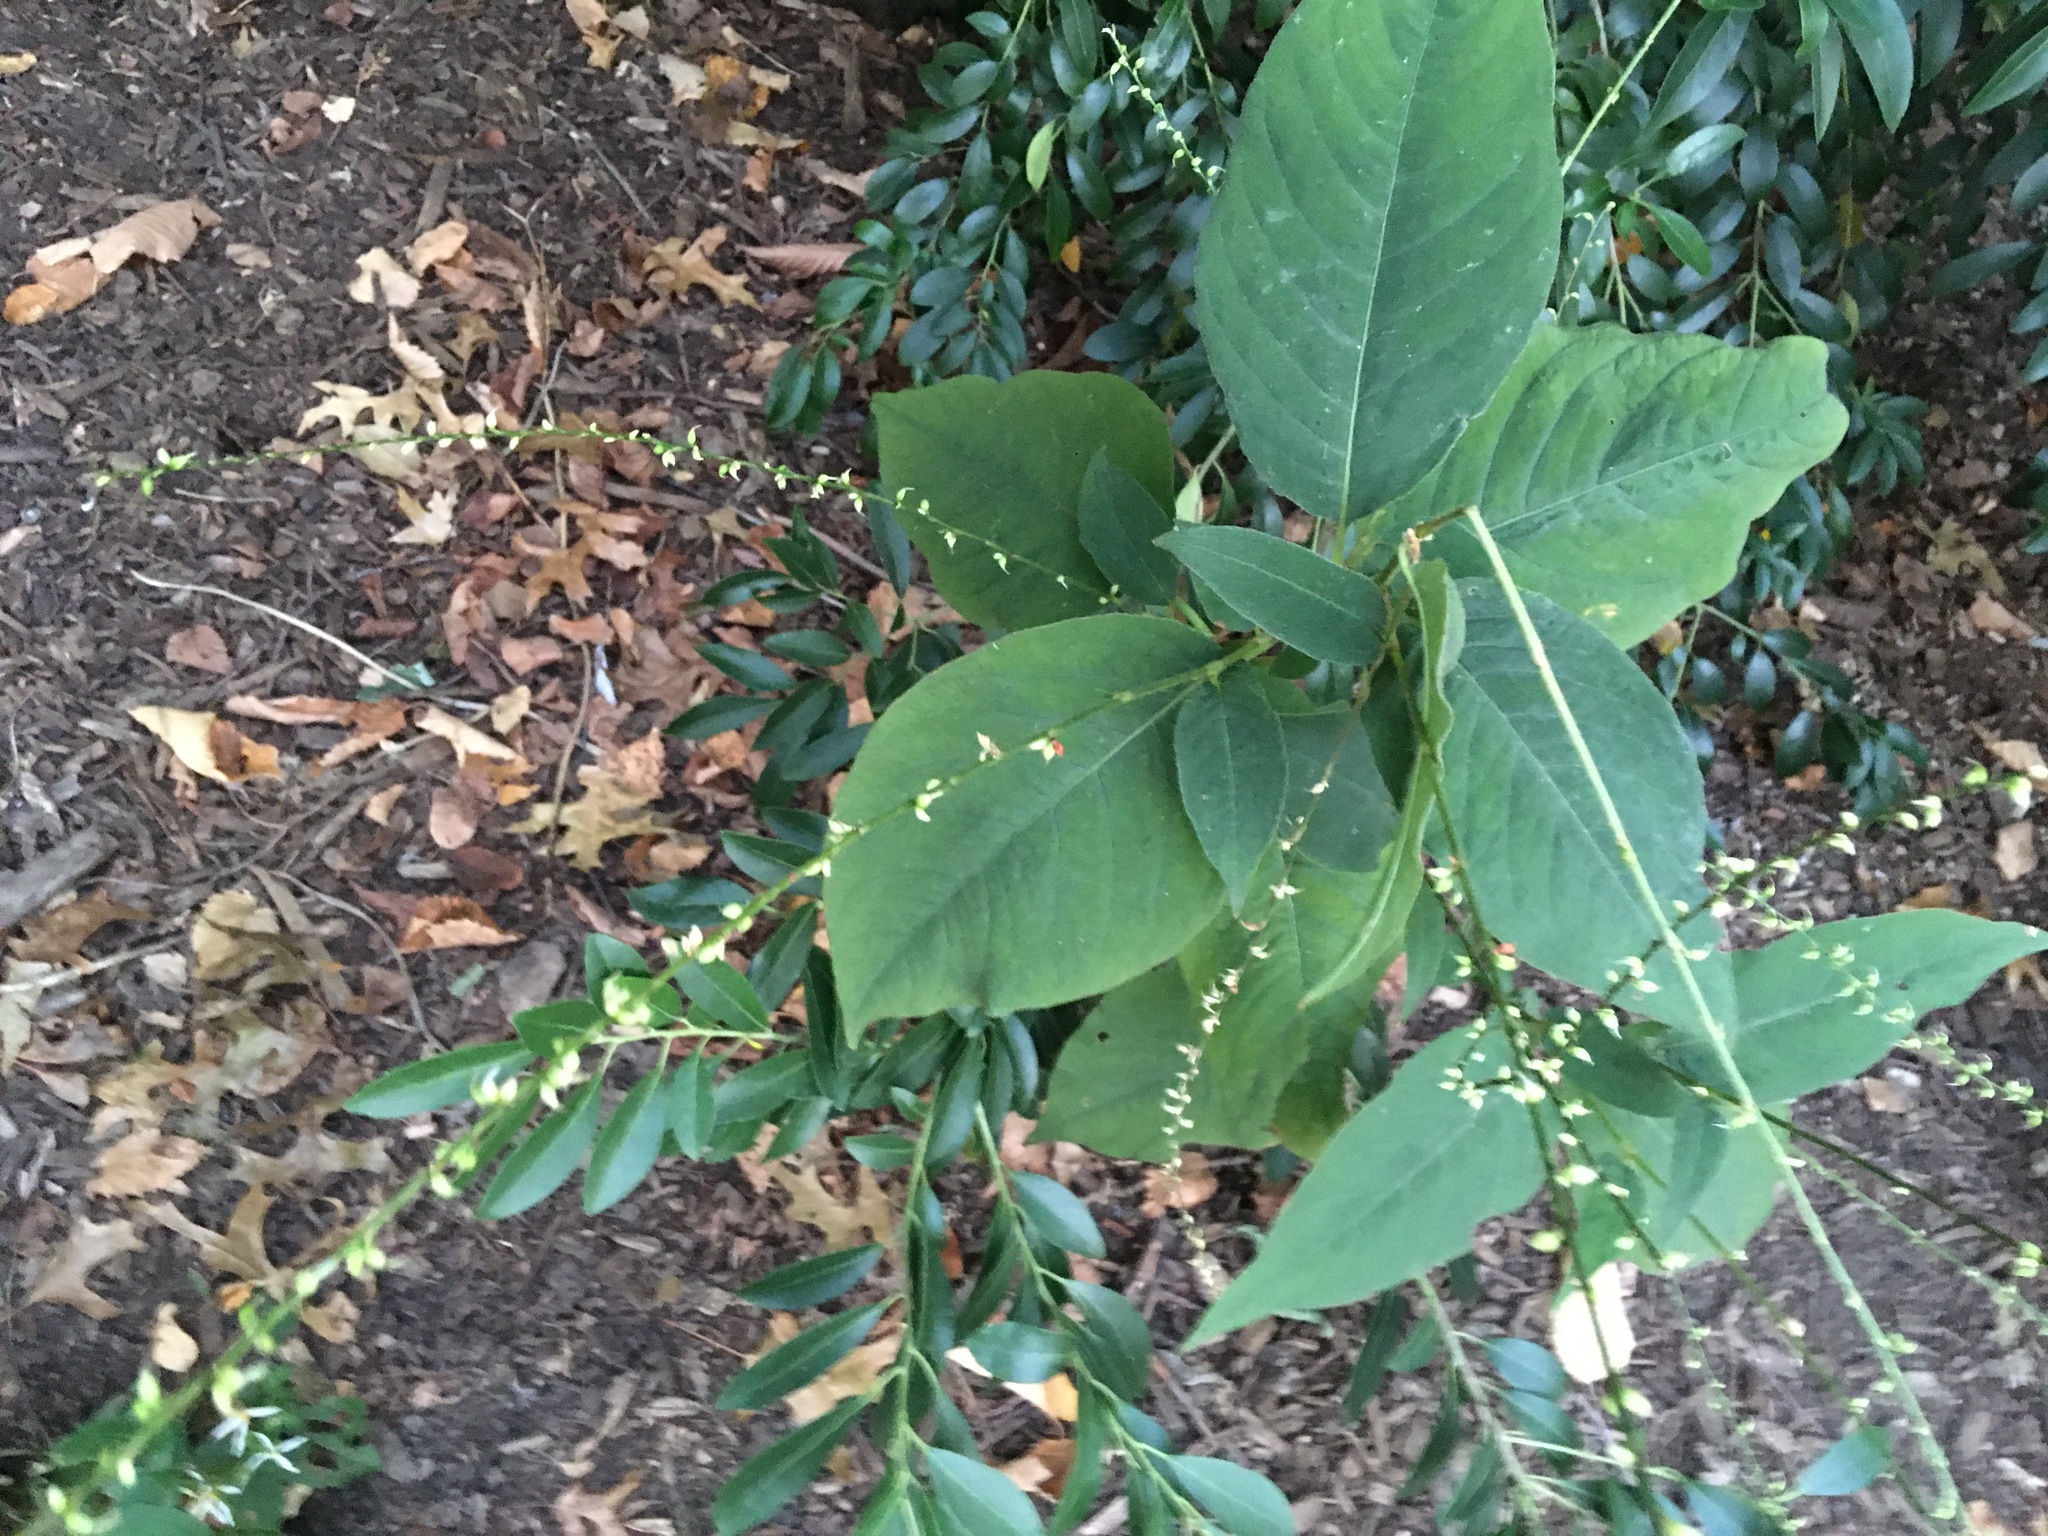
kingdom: Plantae
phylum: Tracheophyta
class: Magnoliopsida
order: Caryophyllales
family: Polygonaceae
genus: Persicaria
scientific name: Persicaria virginiana
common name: Jumpseed
